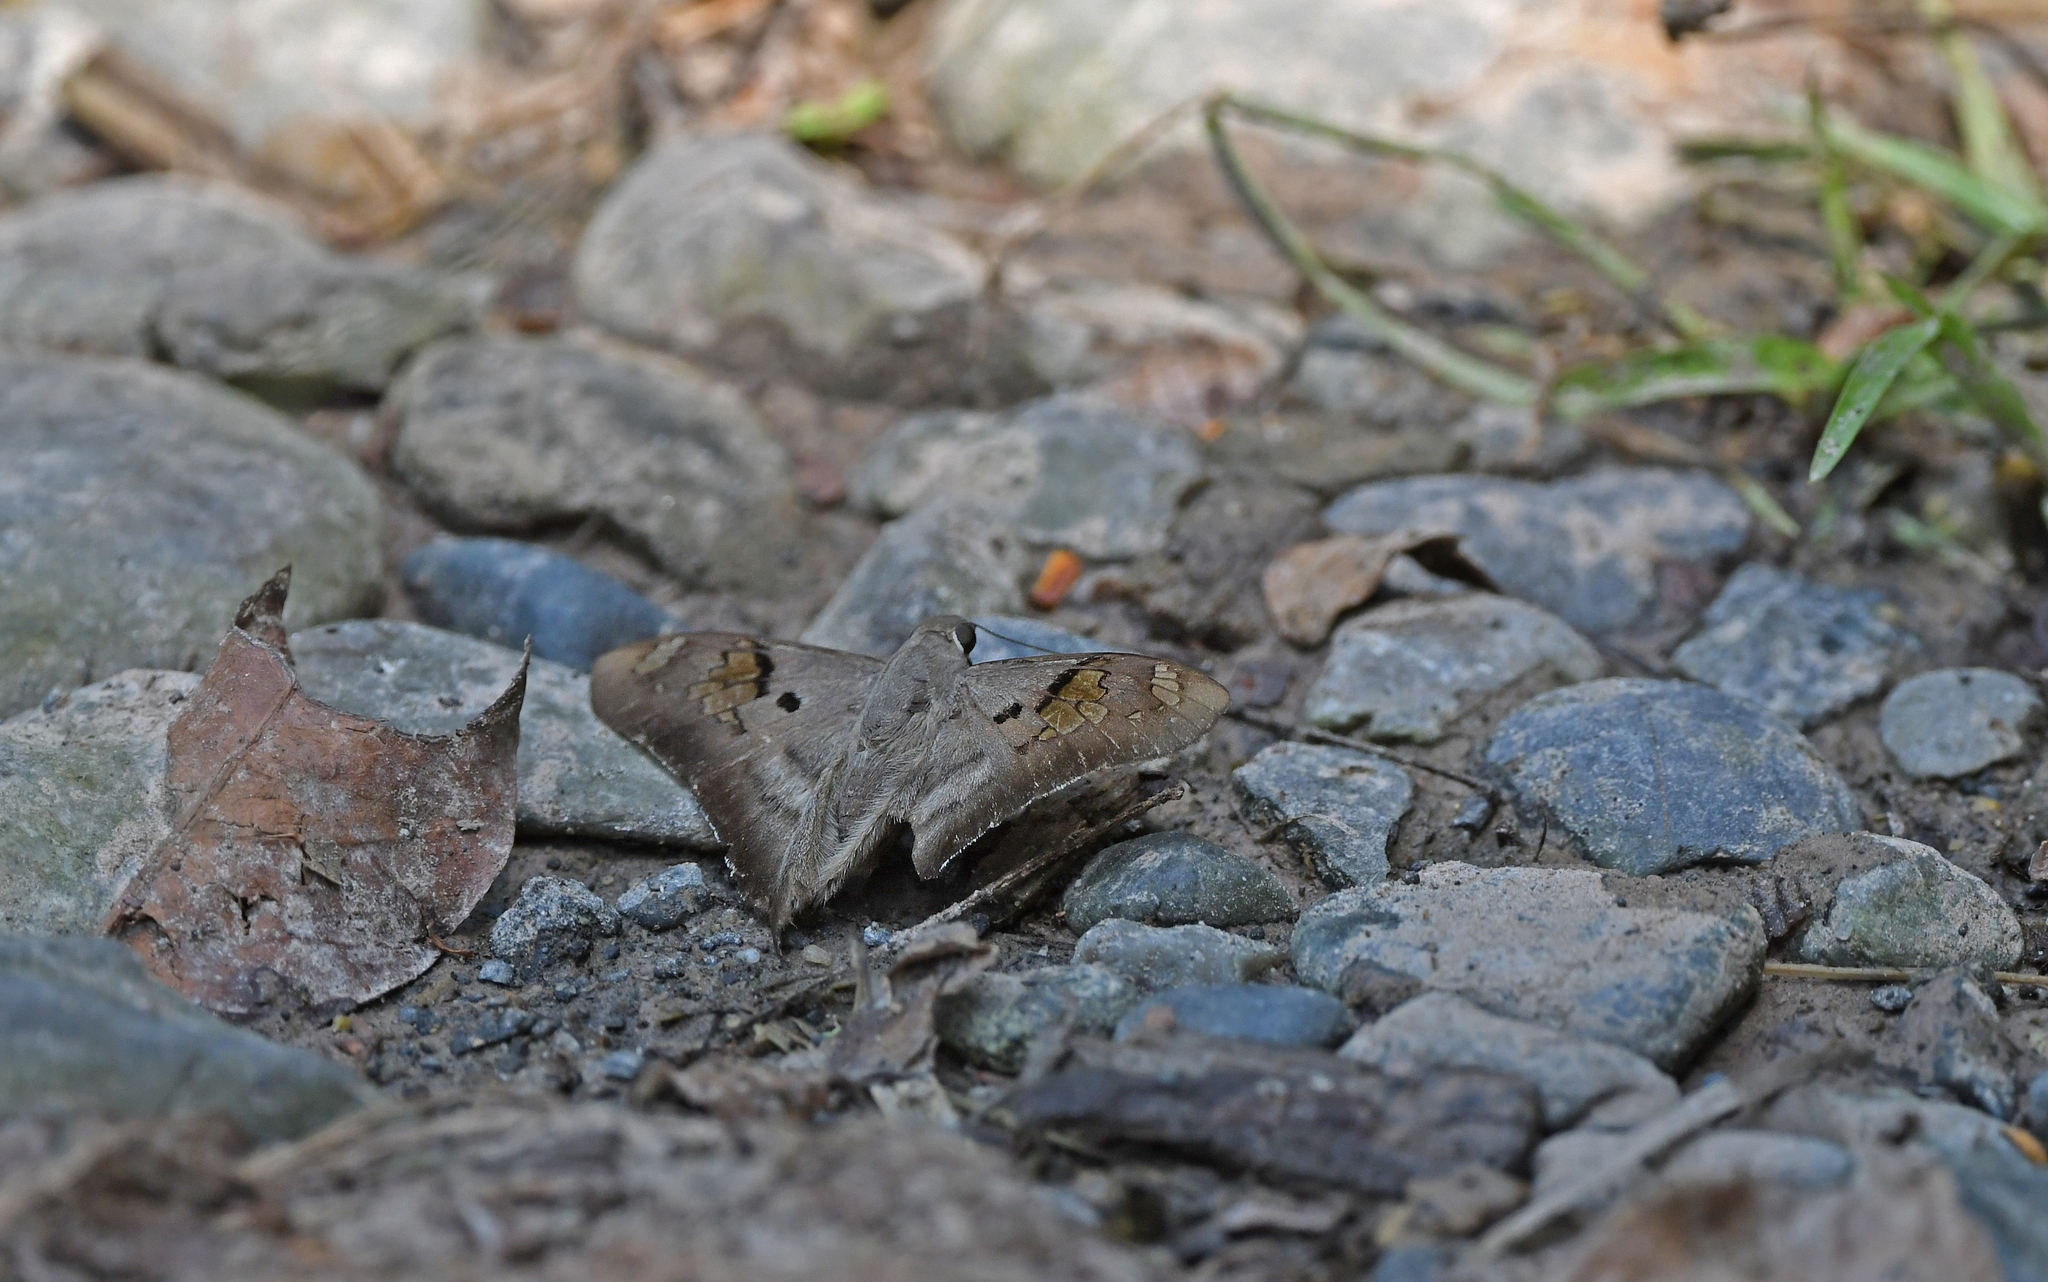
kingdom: Animalia
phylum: Arthropoda
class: Insecta
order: Lepidoptera
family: Hesperiidae
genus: Ectomis
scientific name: Ectomis
